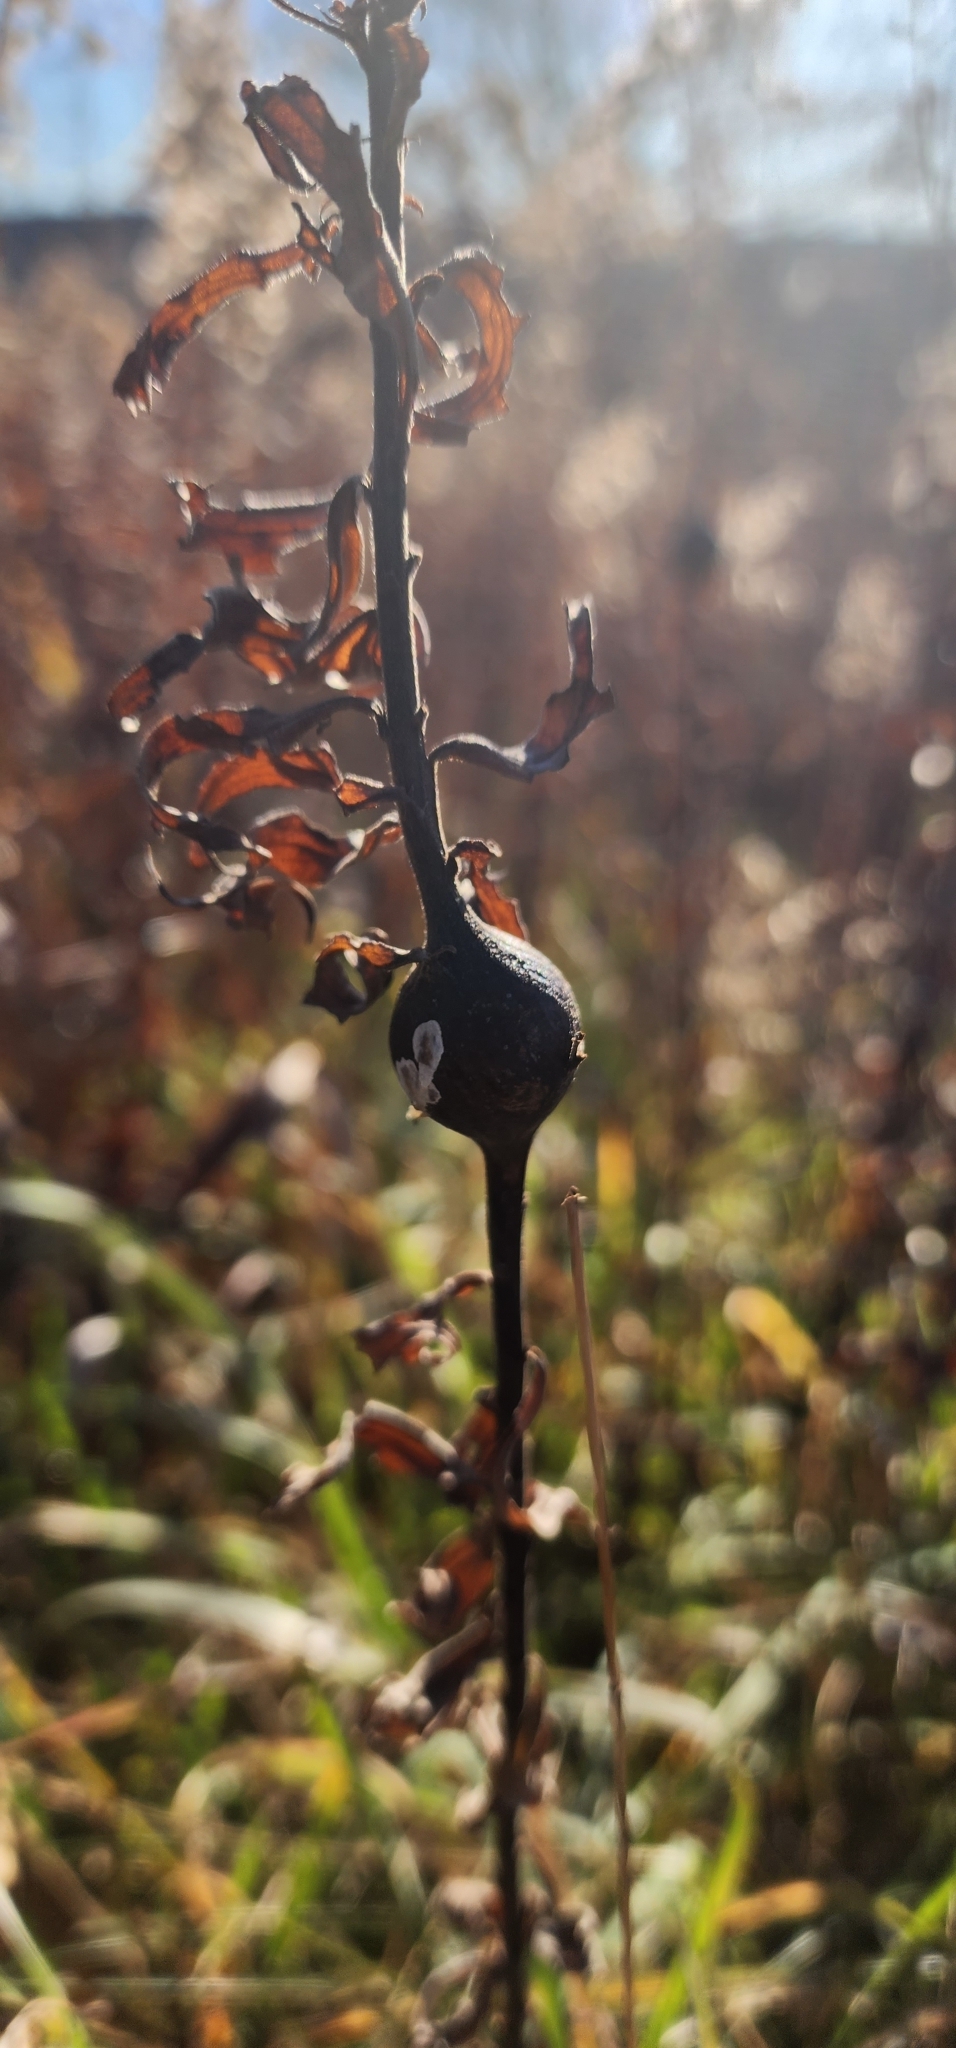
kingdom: Animalia
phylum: Arthropoda
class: Insecta
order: Diptera
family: Tephritidae
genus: Eurosta
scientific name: Eurosta solidaginis
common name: Goldenrod gall fly
